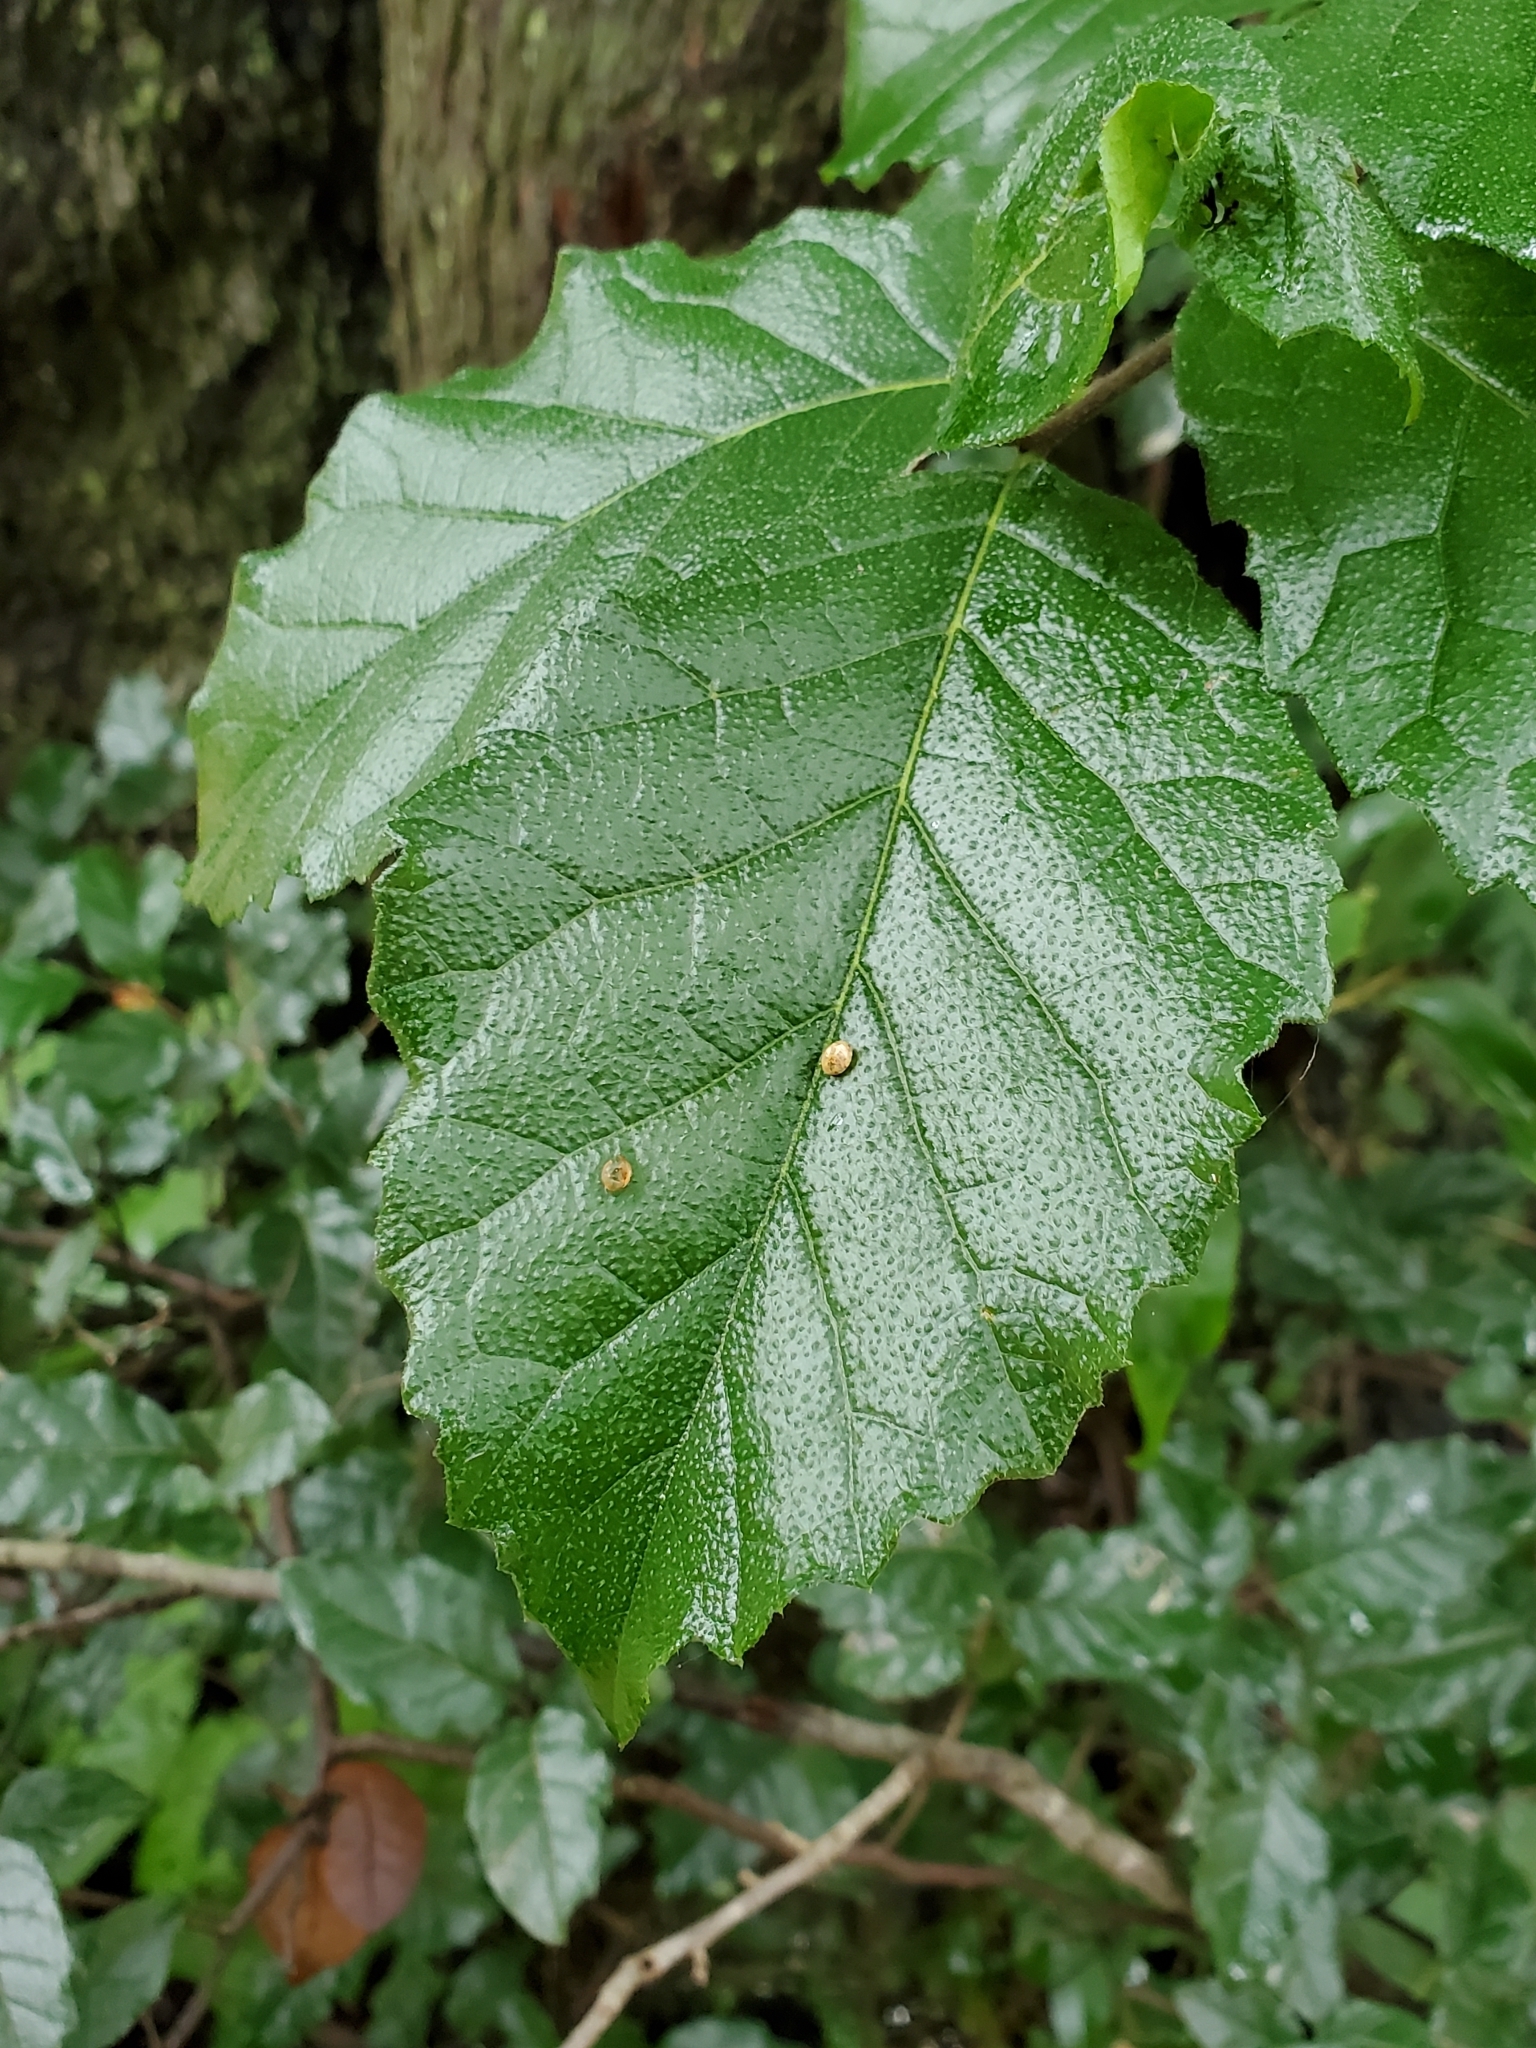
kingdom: Plantae
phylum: Tracheophyta
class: Magnoliopsida
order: Boraginales
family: Ehretiaceae
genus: Ehretia
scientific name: Ehretia anacua
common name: Sugarberry
